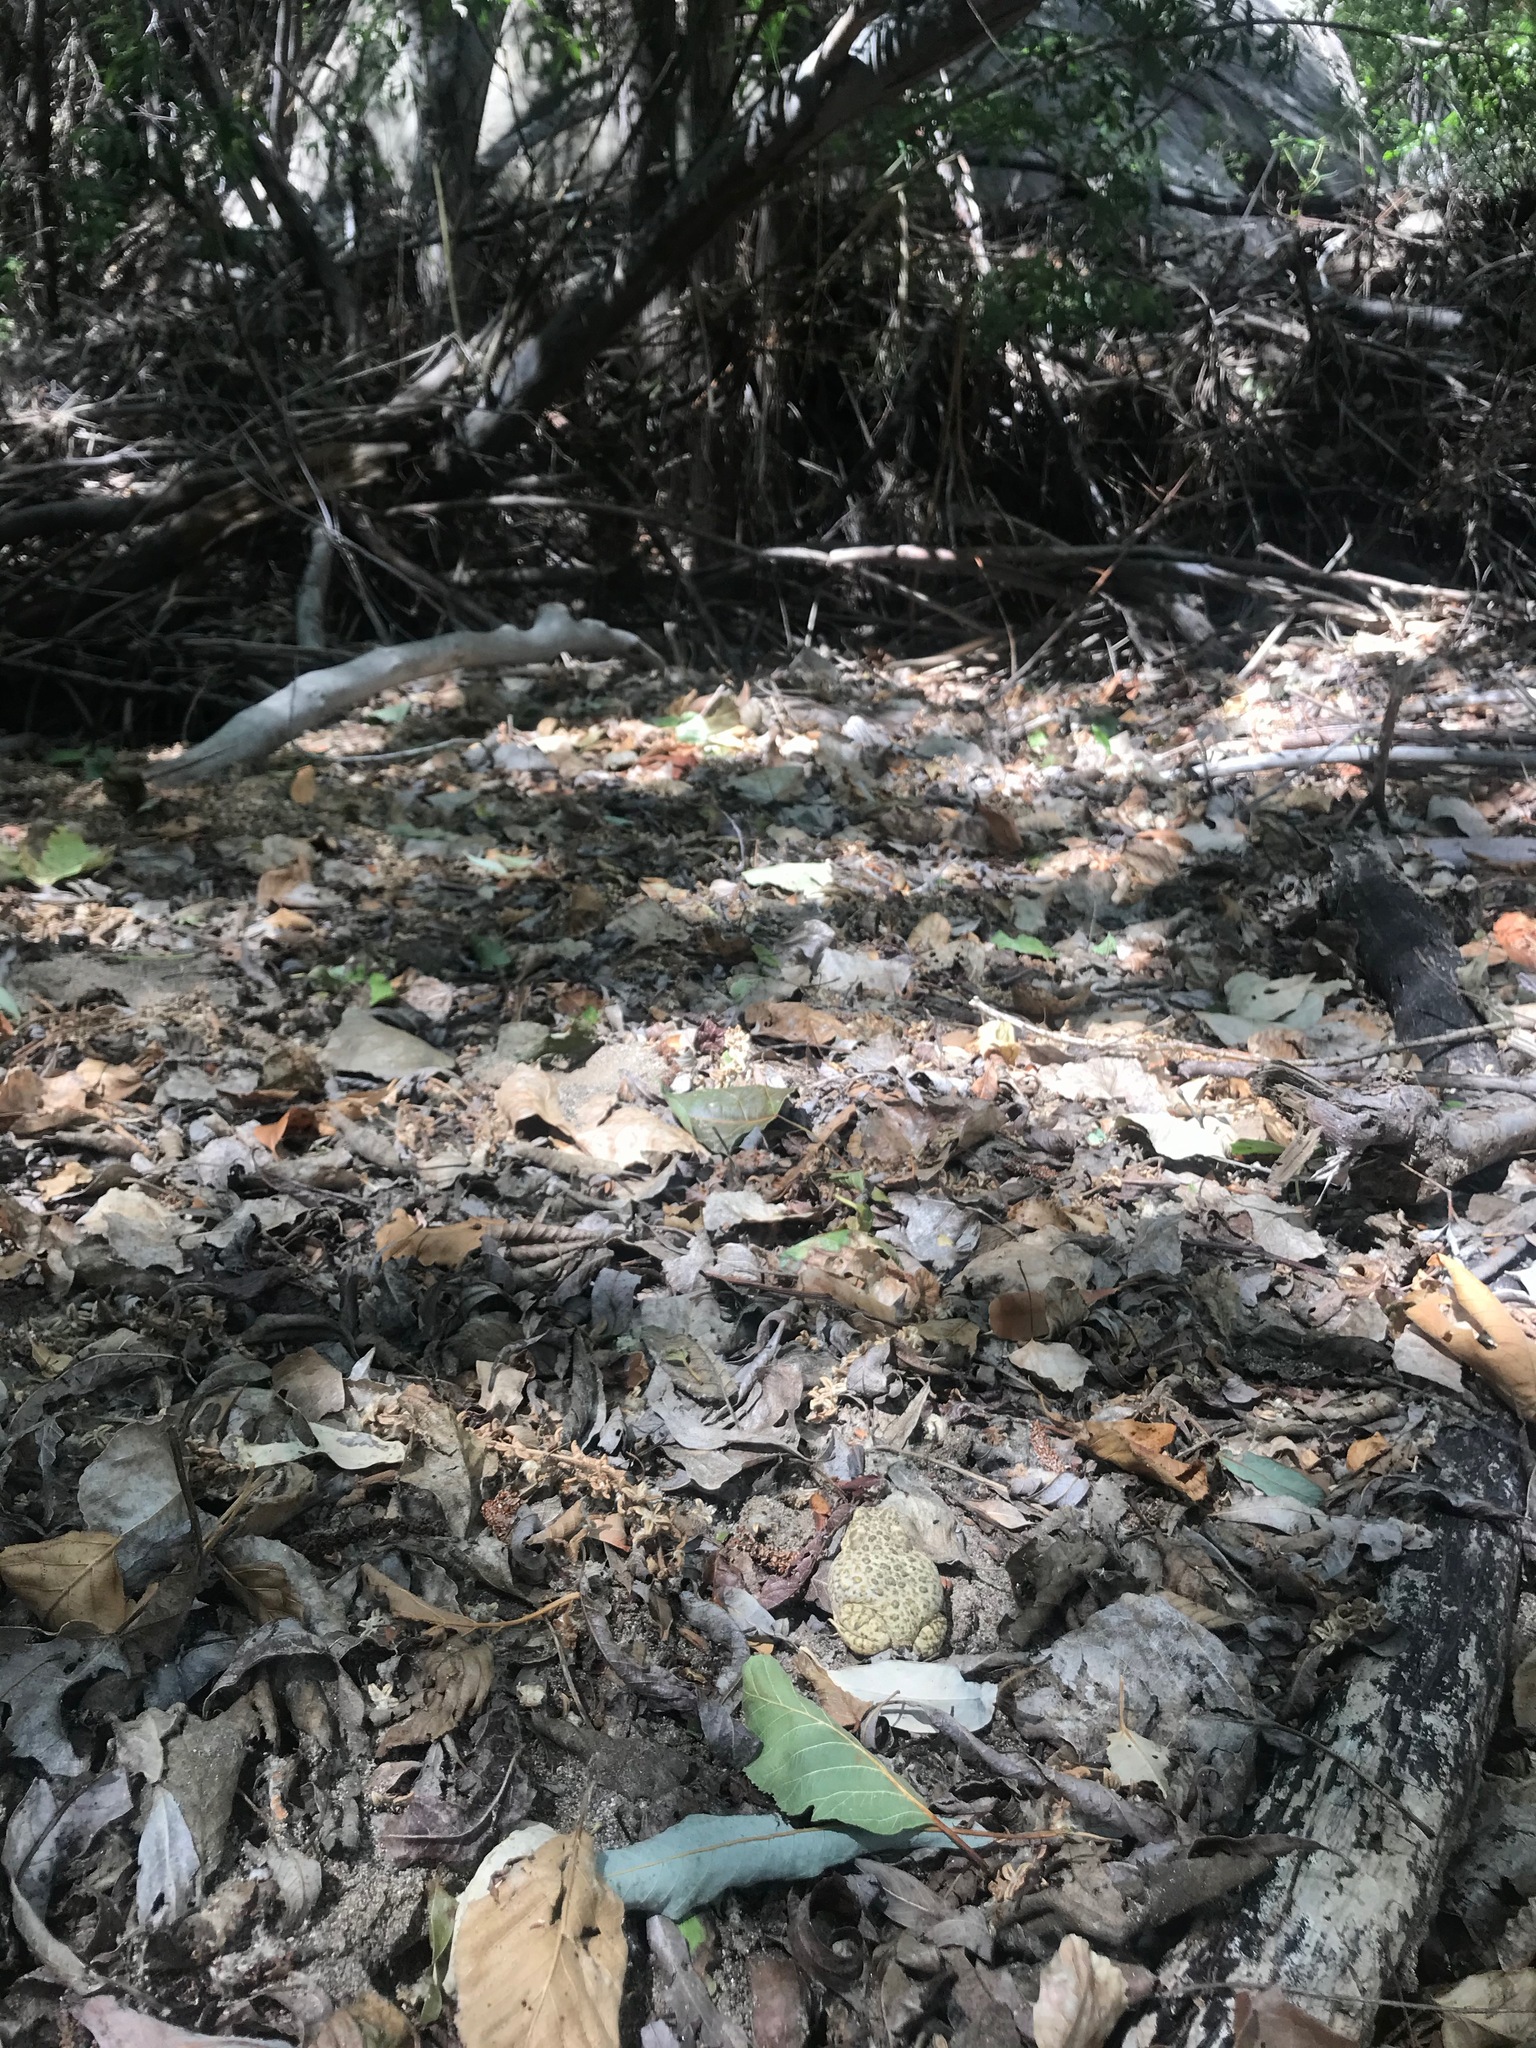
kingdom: Animalia
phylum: Chordata
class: Amphibia
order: Anura
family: Bufonidae
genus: Anaxyrus
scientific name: Anaxyrus californicus
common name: Arroyo toad
